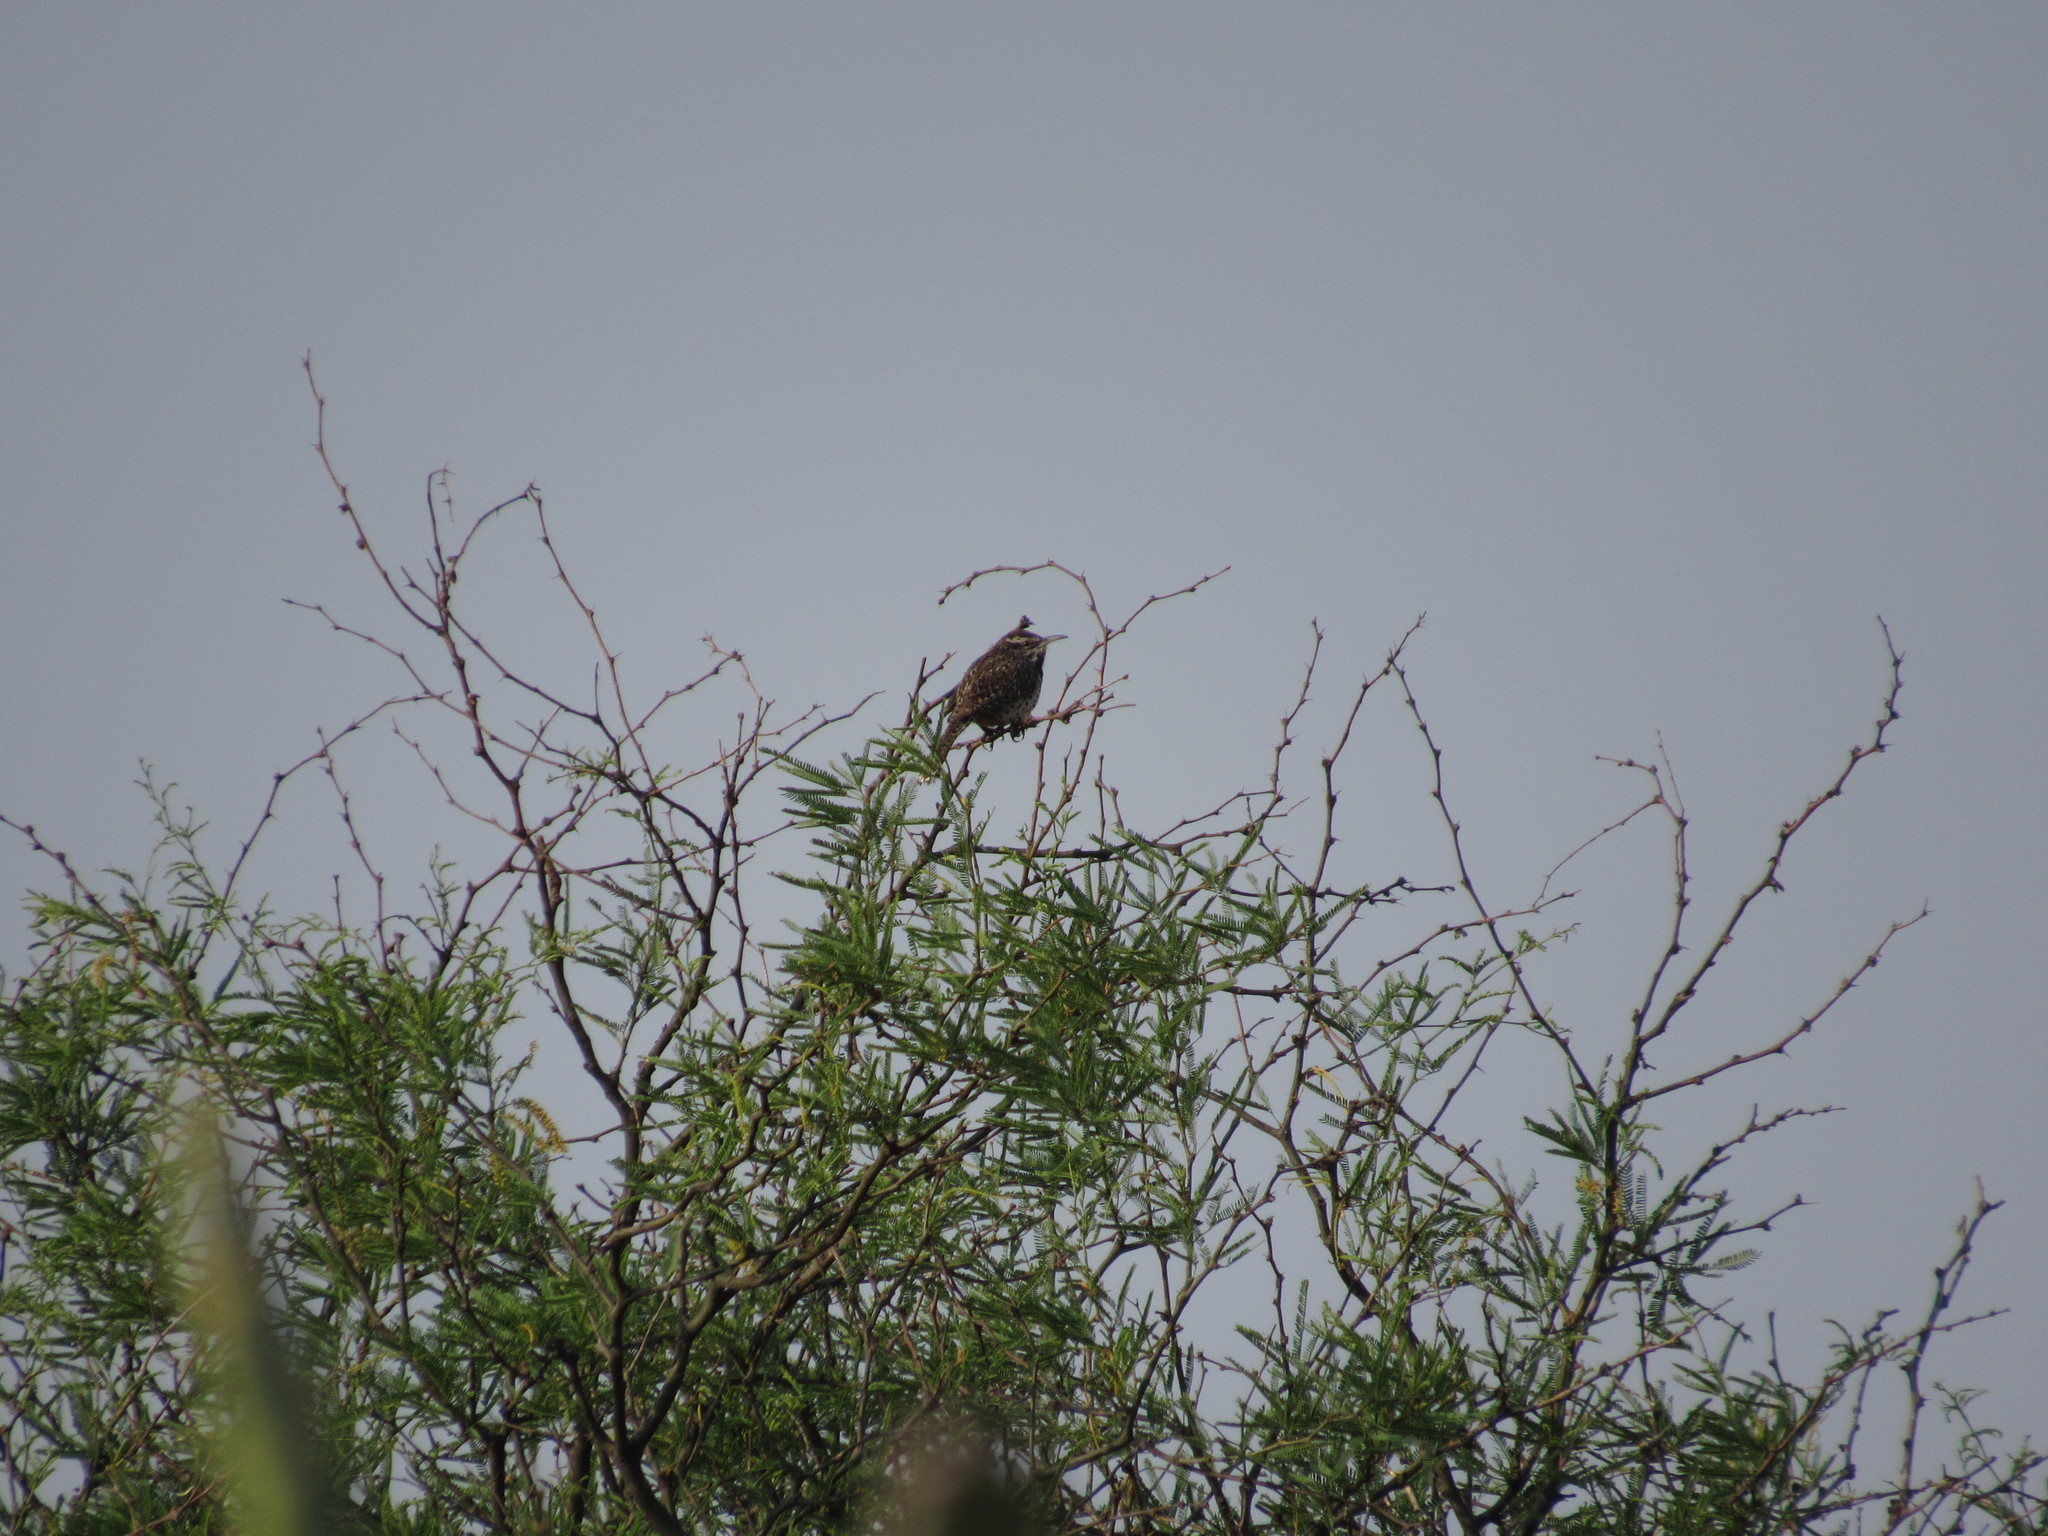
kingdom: Animalia
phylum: Chordata
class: Aves
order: Passeriformes
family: Troglodytidae
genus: Campylorhynchus
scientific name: Campylorhynchus brunneicapillus
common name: Cactus wren
